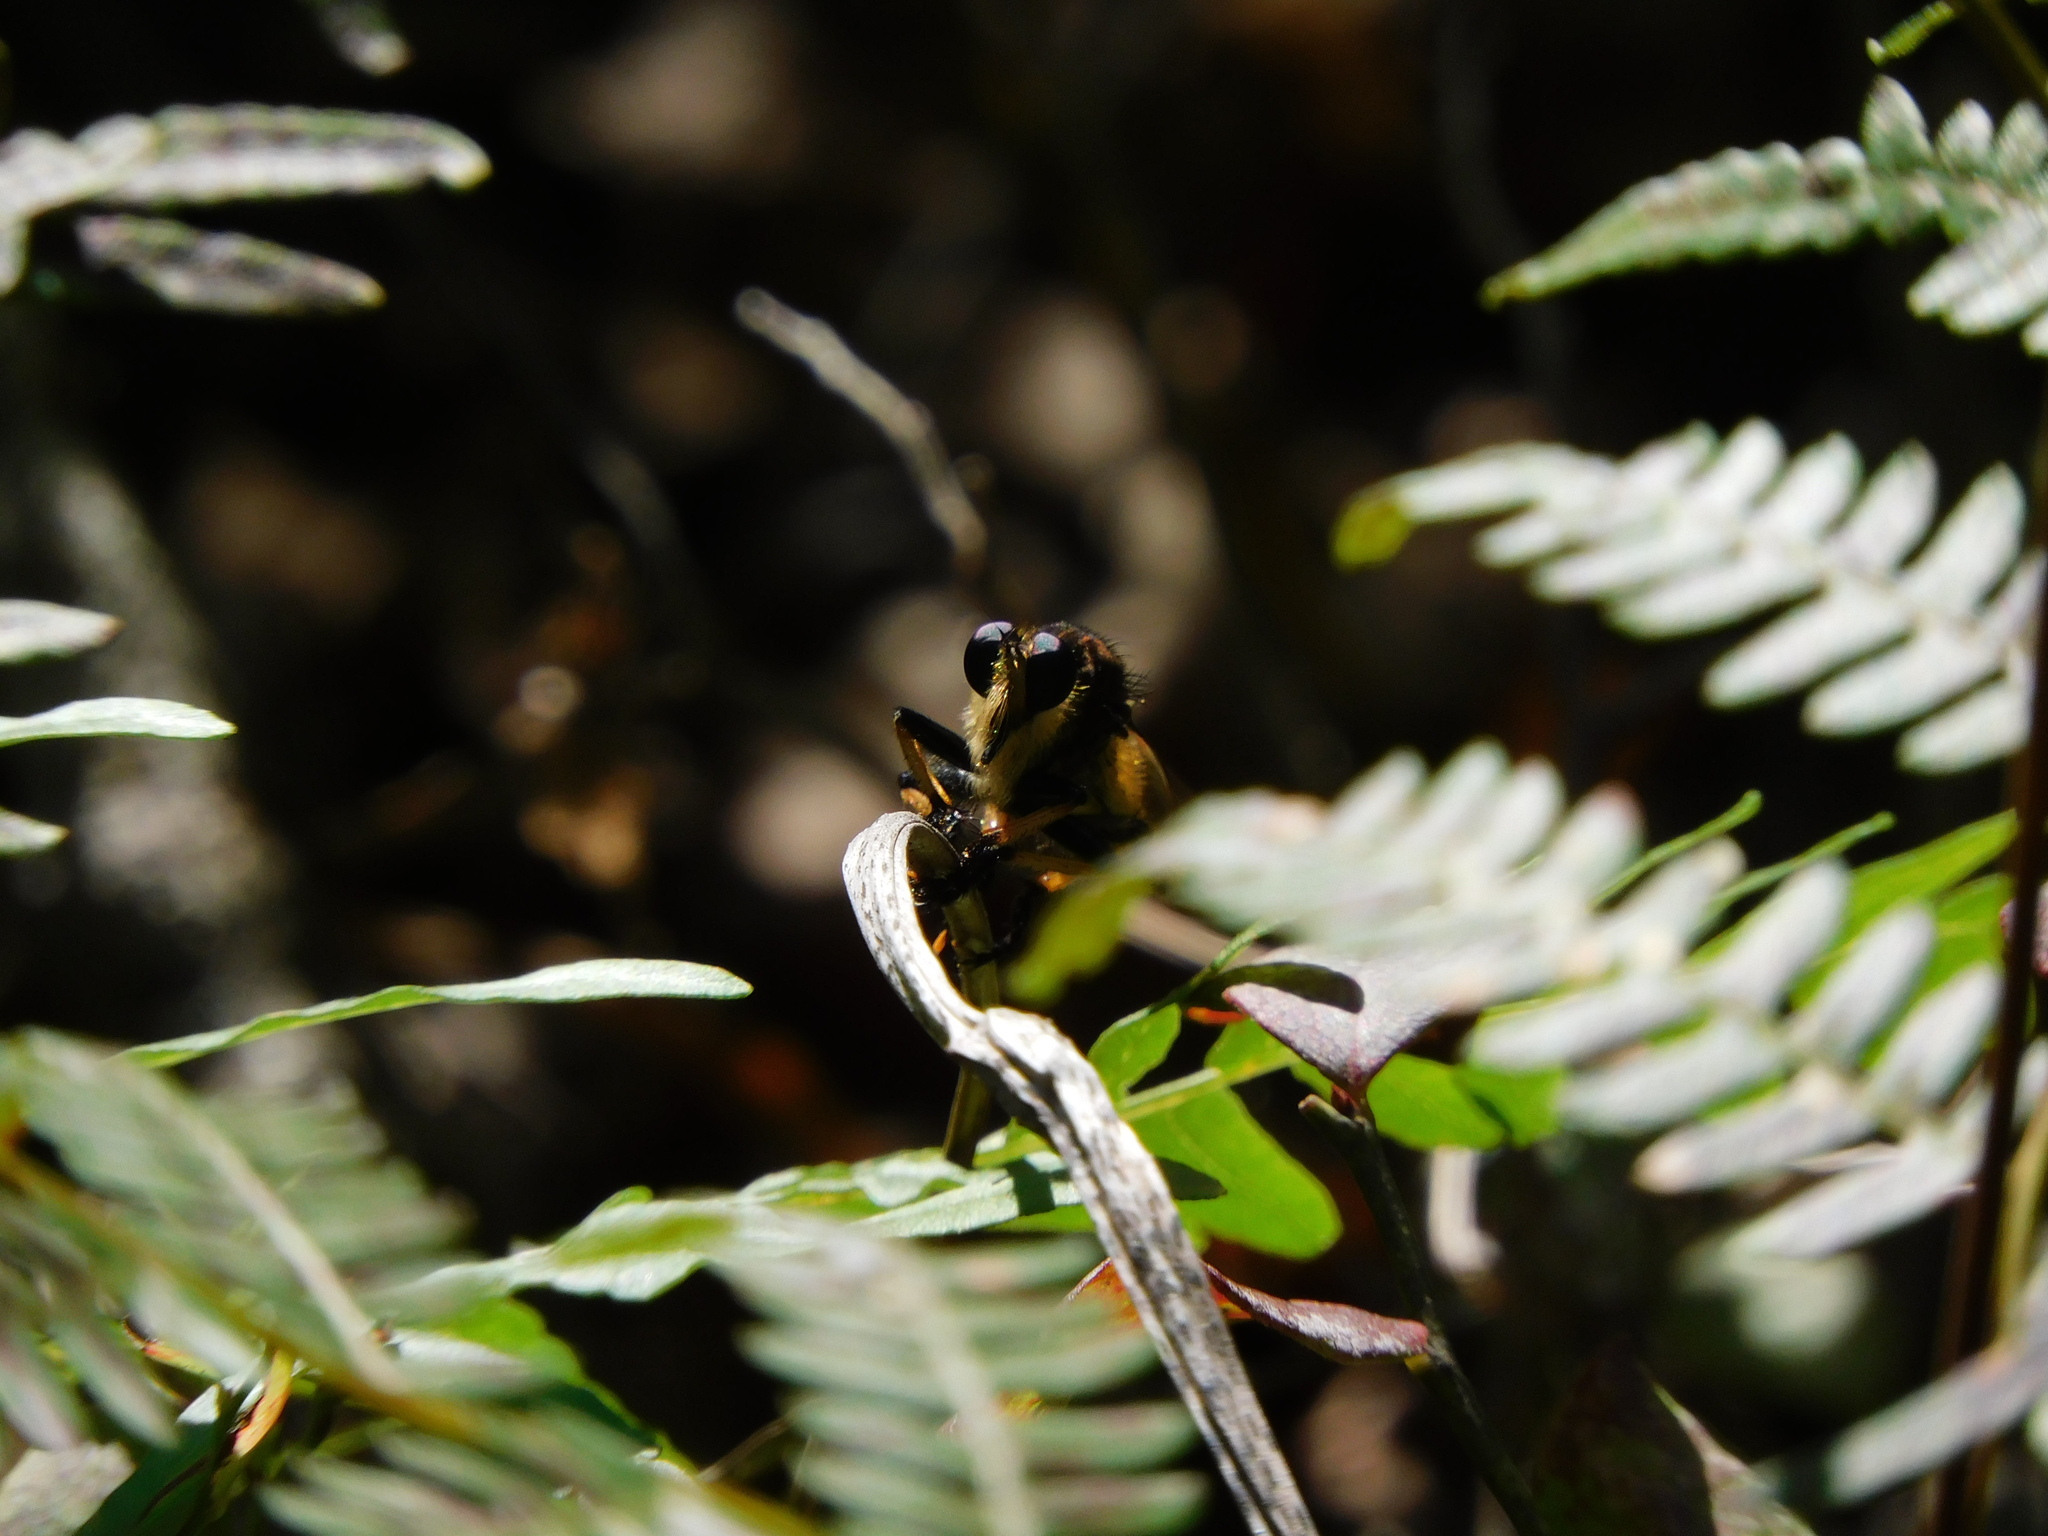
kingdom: Animalia
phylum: Arthropoda
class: Insecta
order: Diptera
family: Asilidae
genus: Promachus
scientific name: Promachus rufipes
